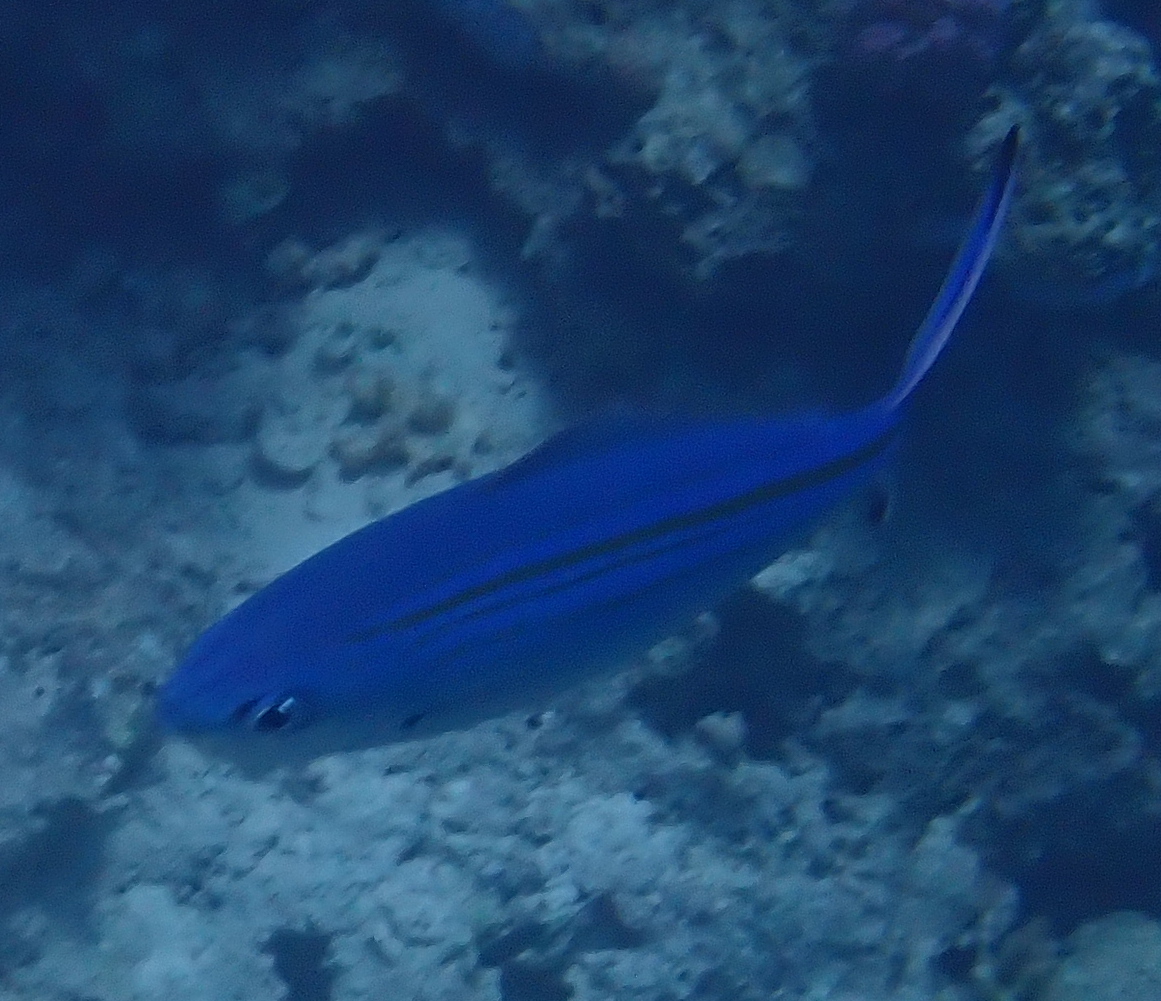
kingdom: Animalia
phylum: Chordata
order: Perciformes
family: Caesionidae
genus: Caesio
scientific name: Caesio caerulaurea
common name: Blue and gold fusilier
